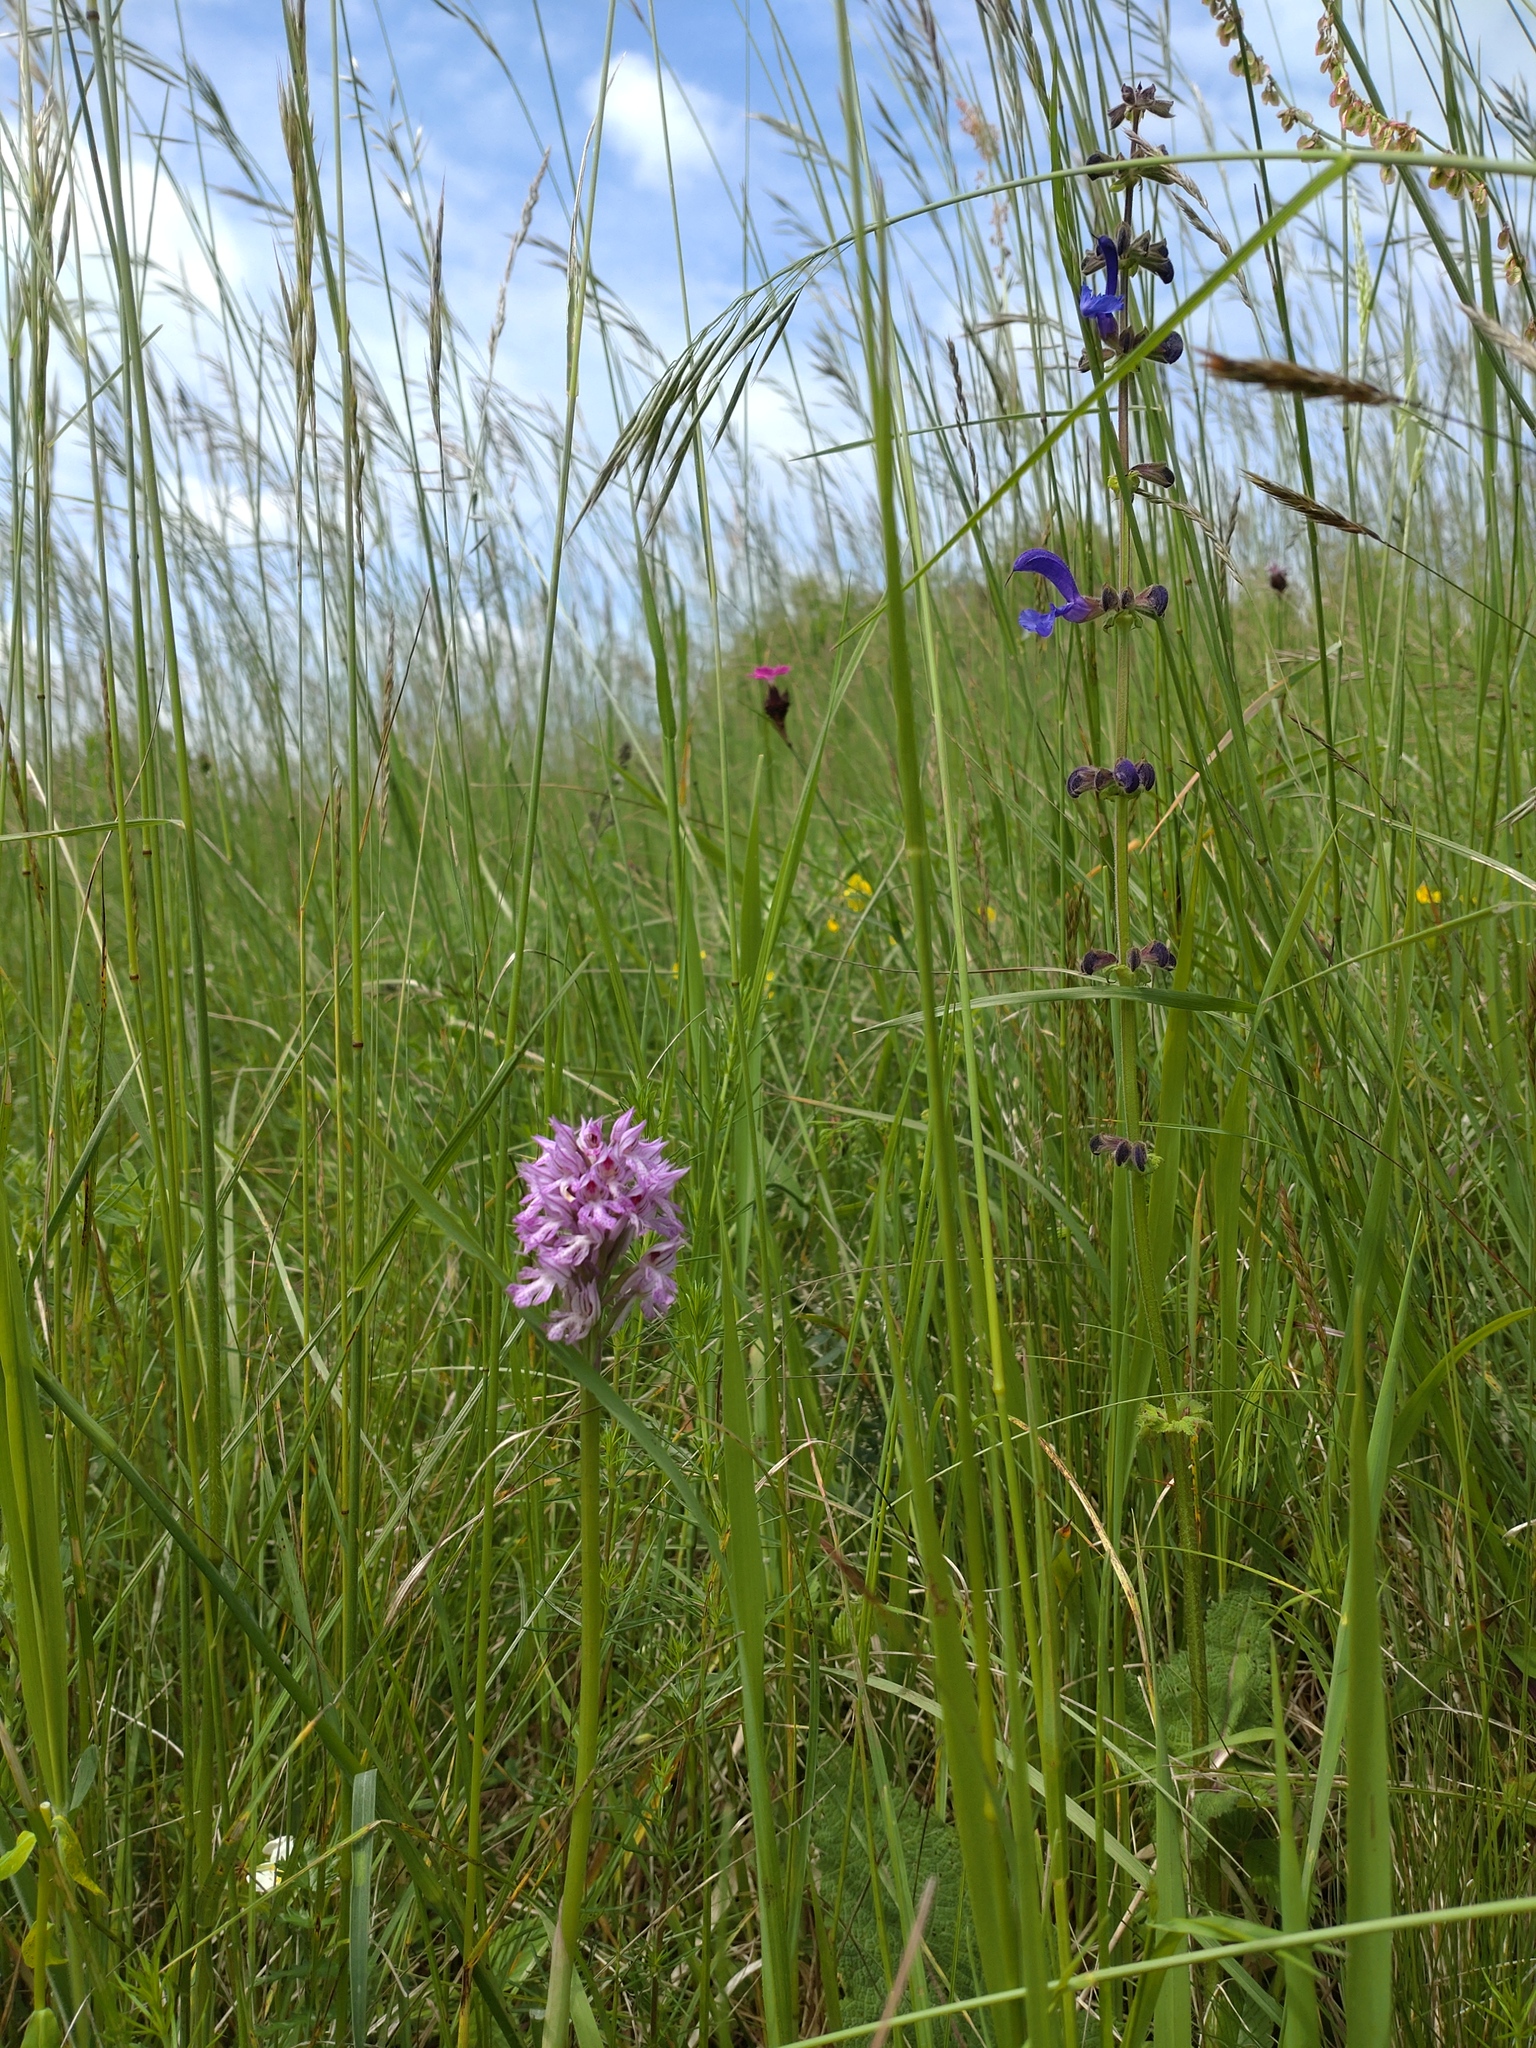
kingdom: Plantae
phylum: Tracheophyta
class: Liliopsida
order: Asparagales
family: Orchidaceae
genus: Neotinea
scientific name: Neotinea tridentata
